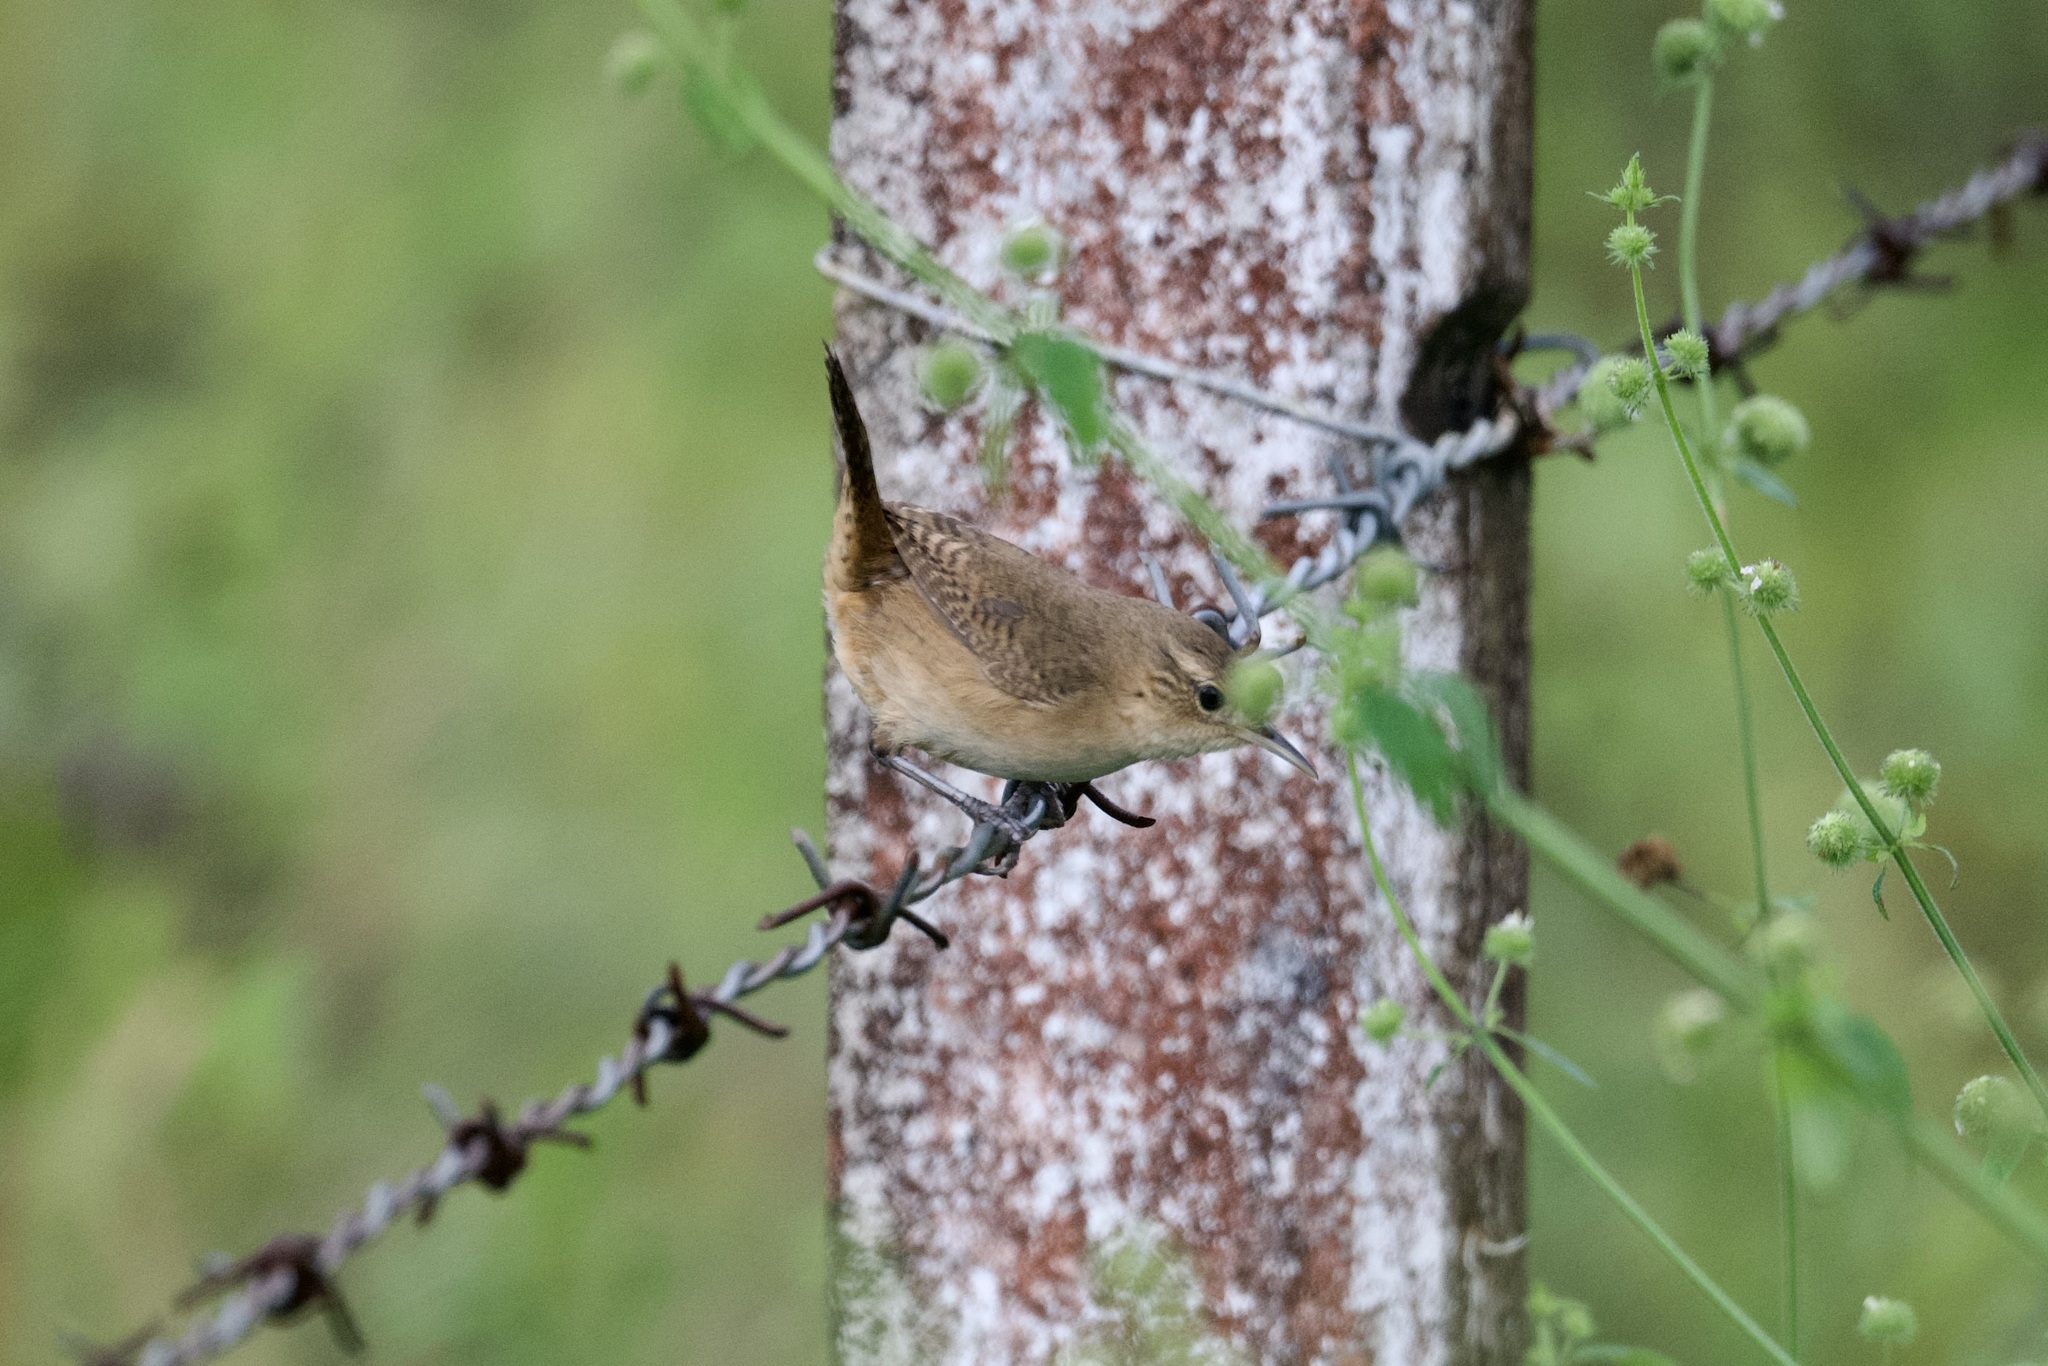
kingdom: Animalia
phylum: Chordata
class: Aves
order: Passeriformes
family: Troglodytidae
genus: Troglodytes
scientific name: Troglodytes aedon
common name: House wren
